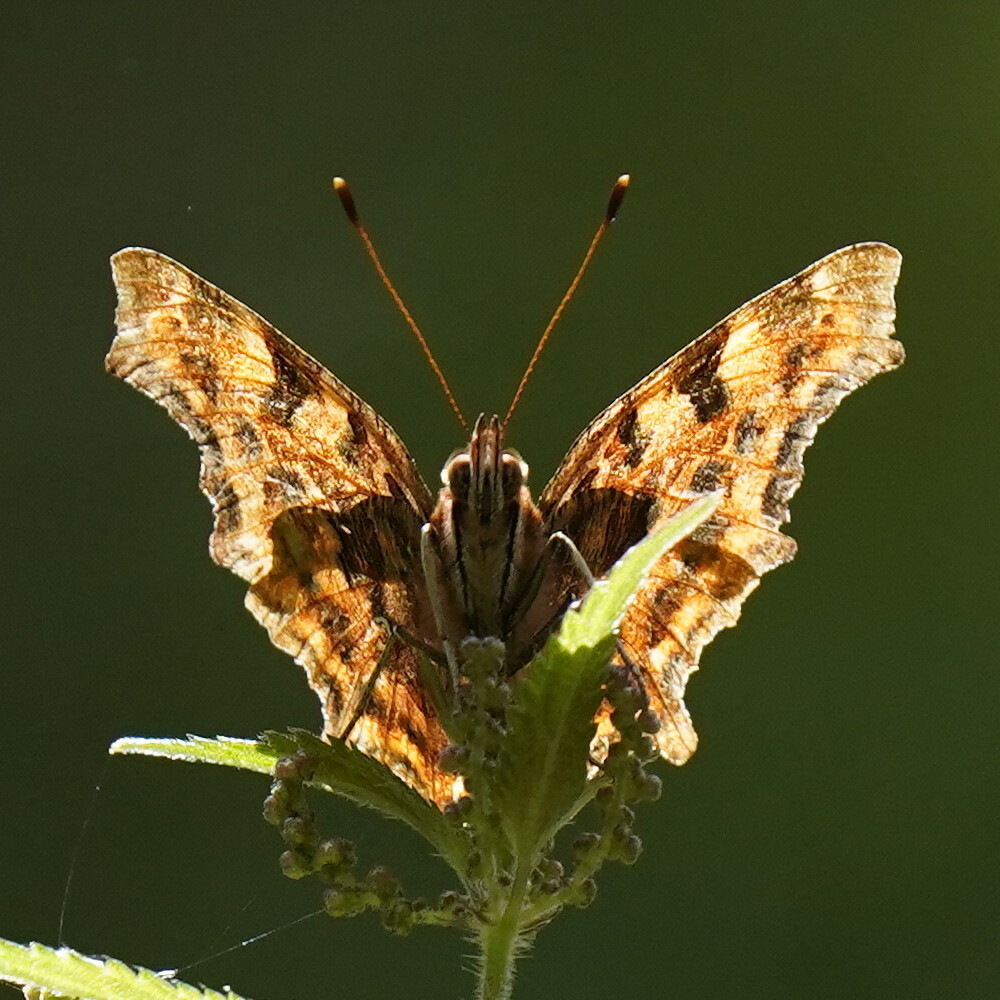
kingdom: Animalia
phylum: Arthropoda
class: Insecta
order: Lepidoptera
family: Nymphalidae
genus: Polygonia
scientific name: Polygonia c-album
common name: Comma
